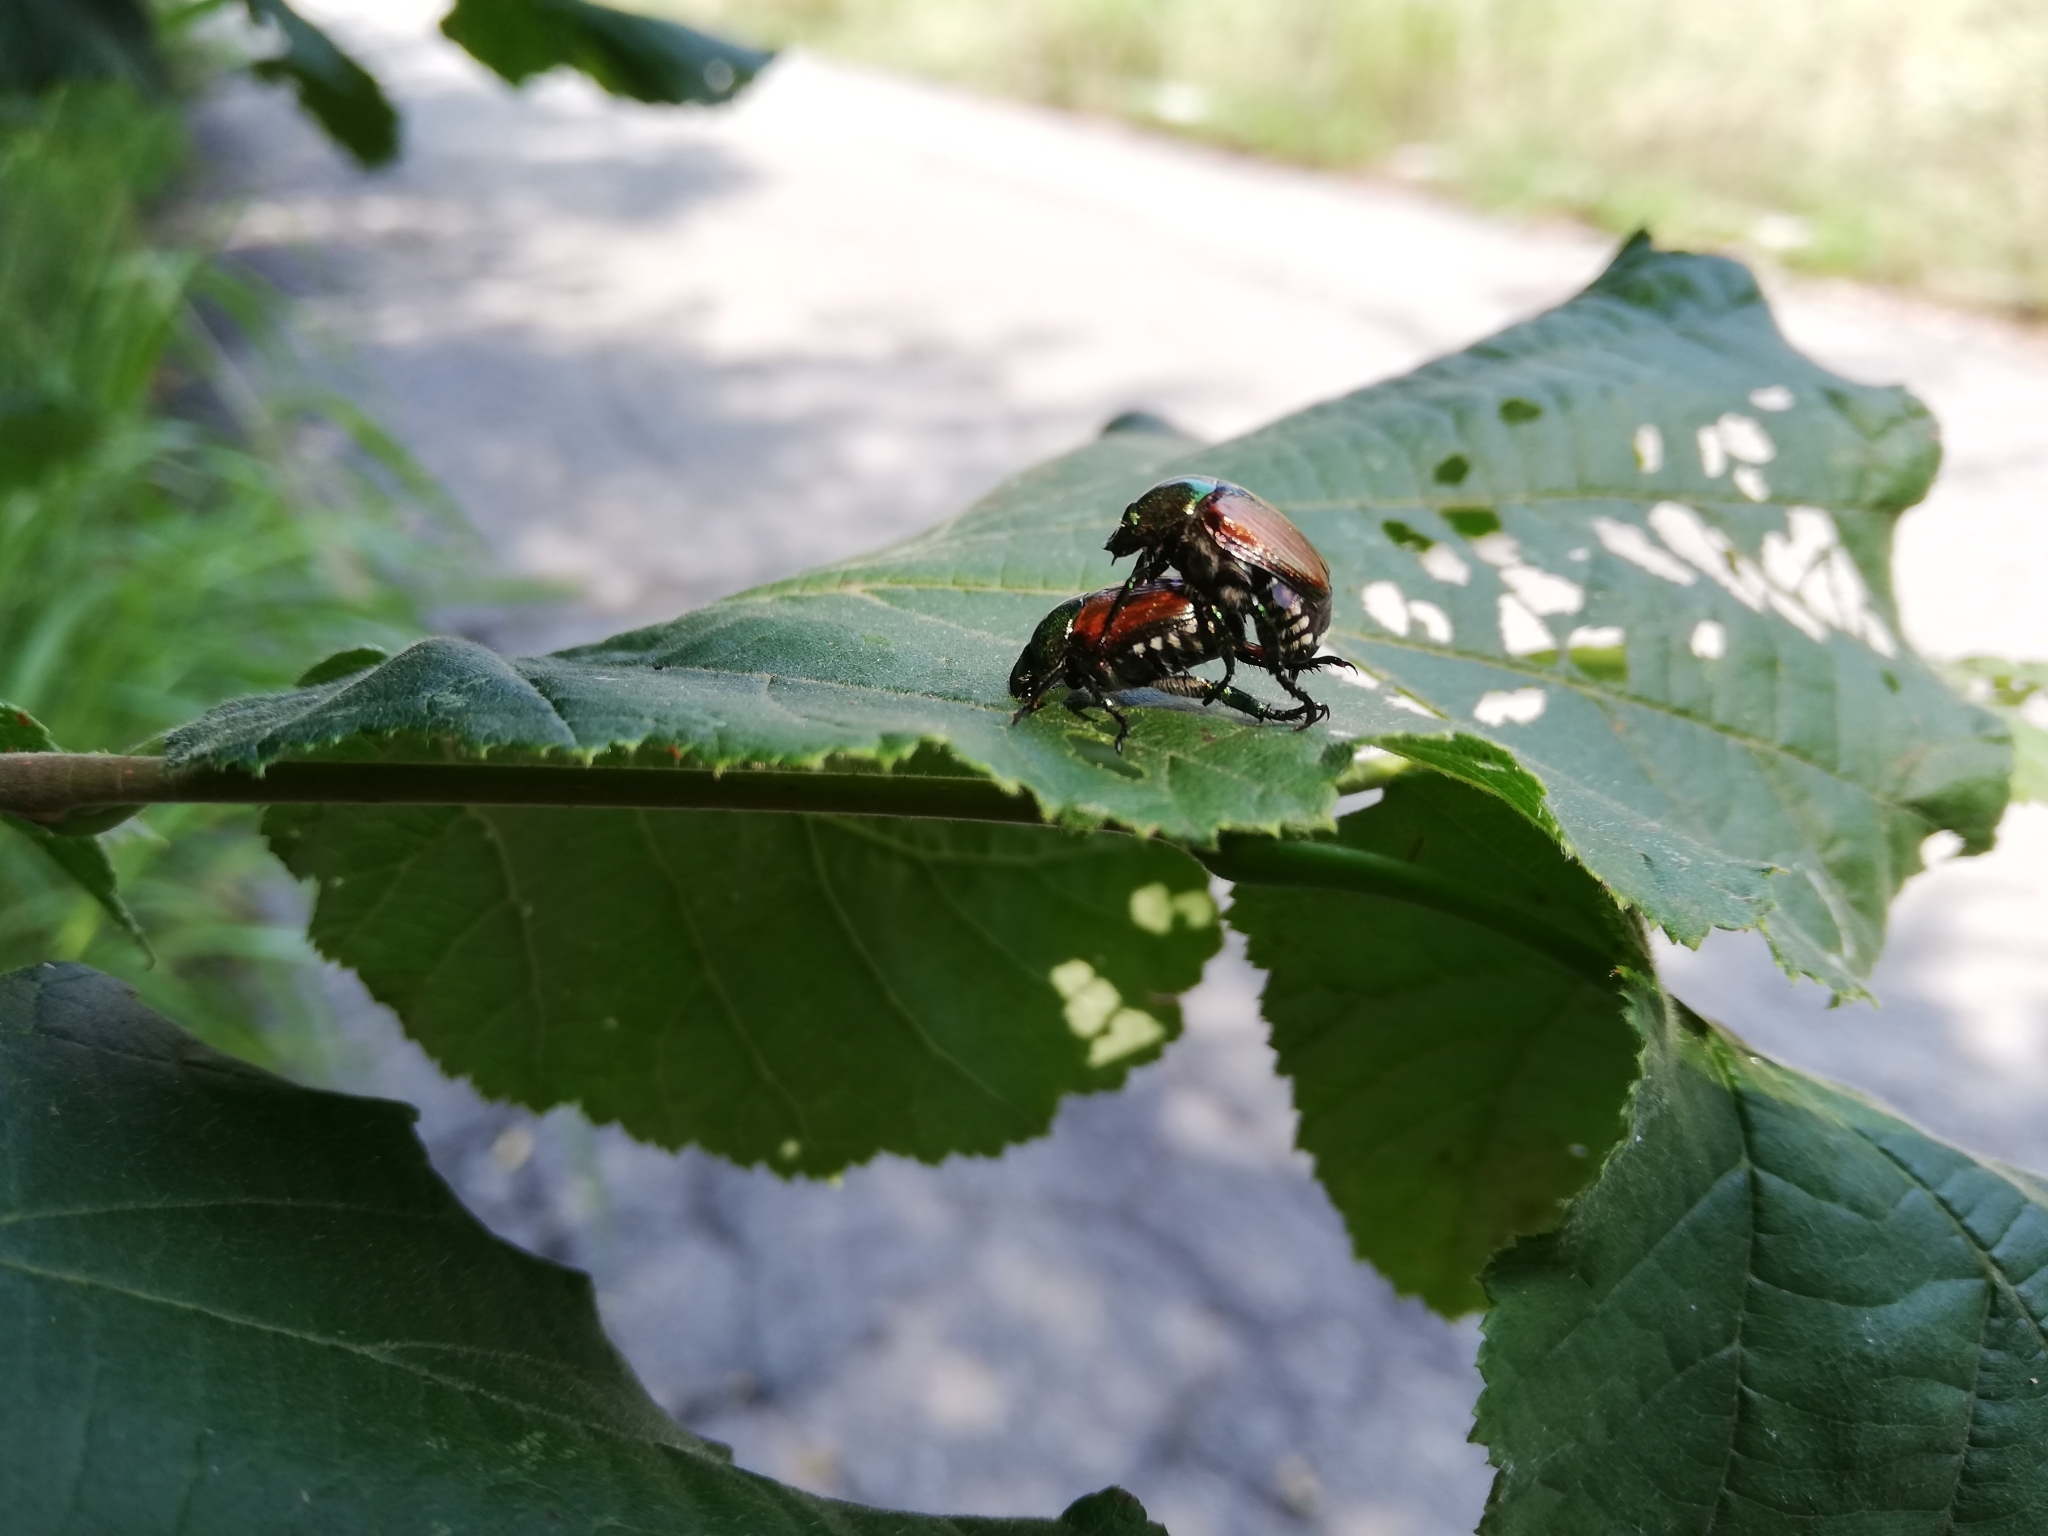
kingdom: Animalia
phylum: Arthropoda
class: Insecta
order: Coleoptera
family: Scarabaeidae
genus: Popillia
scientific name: Popillia japonica
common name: Japanese beetle
